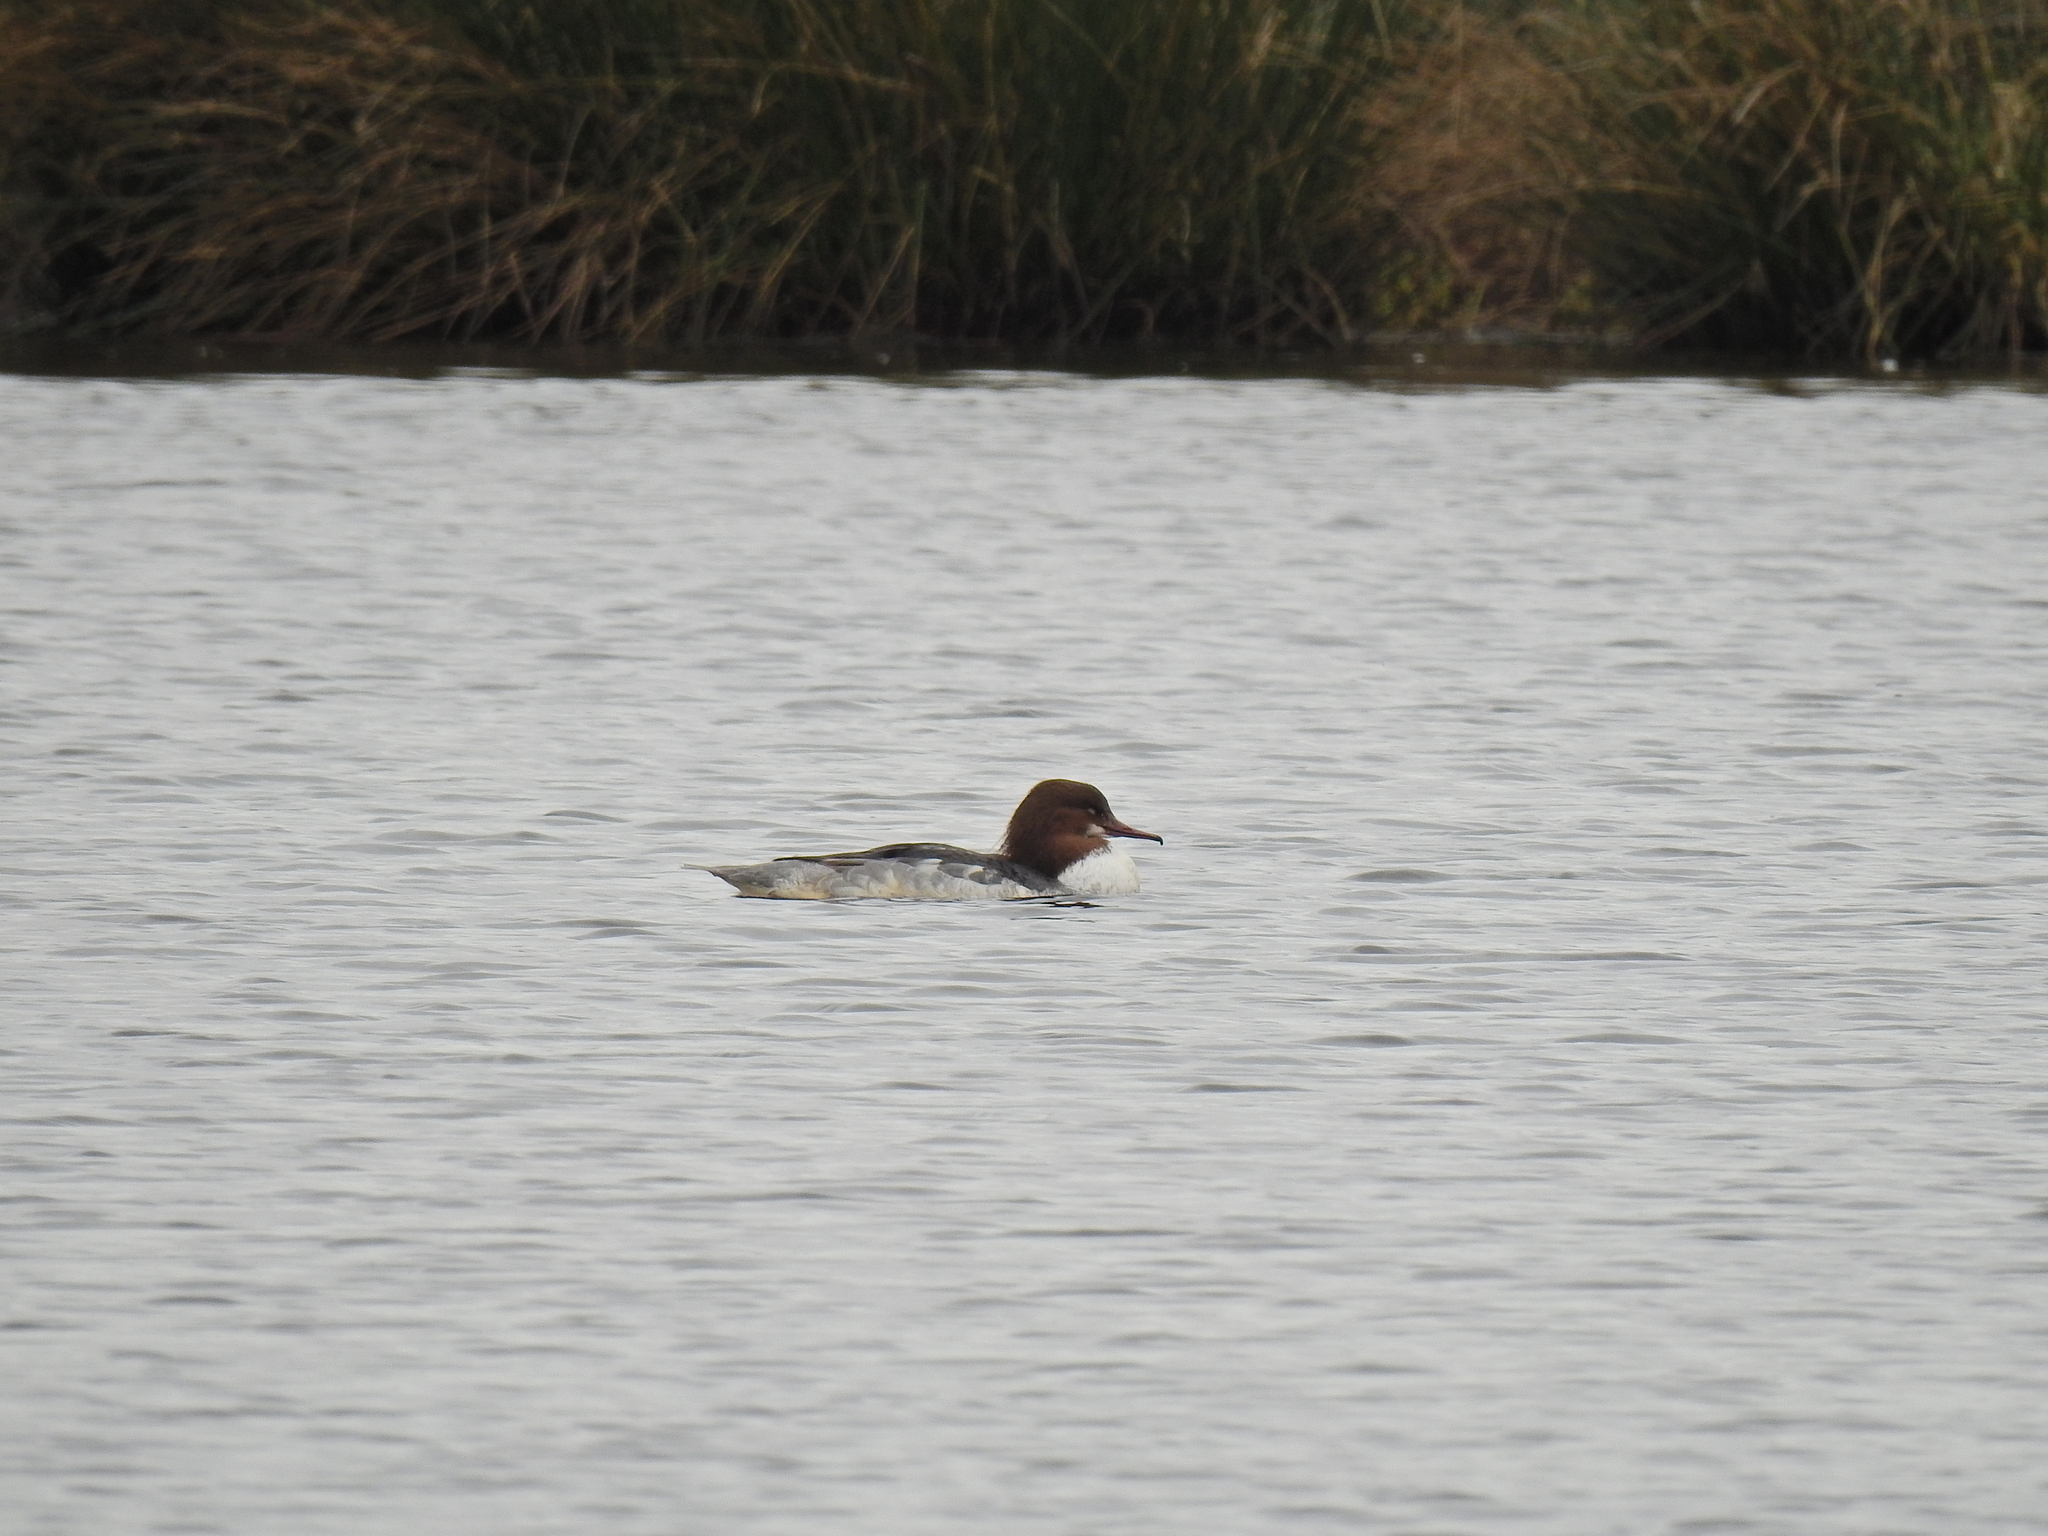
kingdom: Animalia
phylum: Chordata
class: Aves
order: Anseriformes
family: Anatidae
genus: Mergus
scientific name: Mergus merganser
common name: Common merganser
